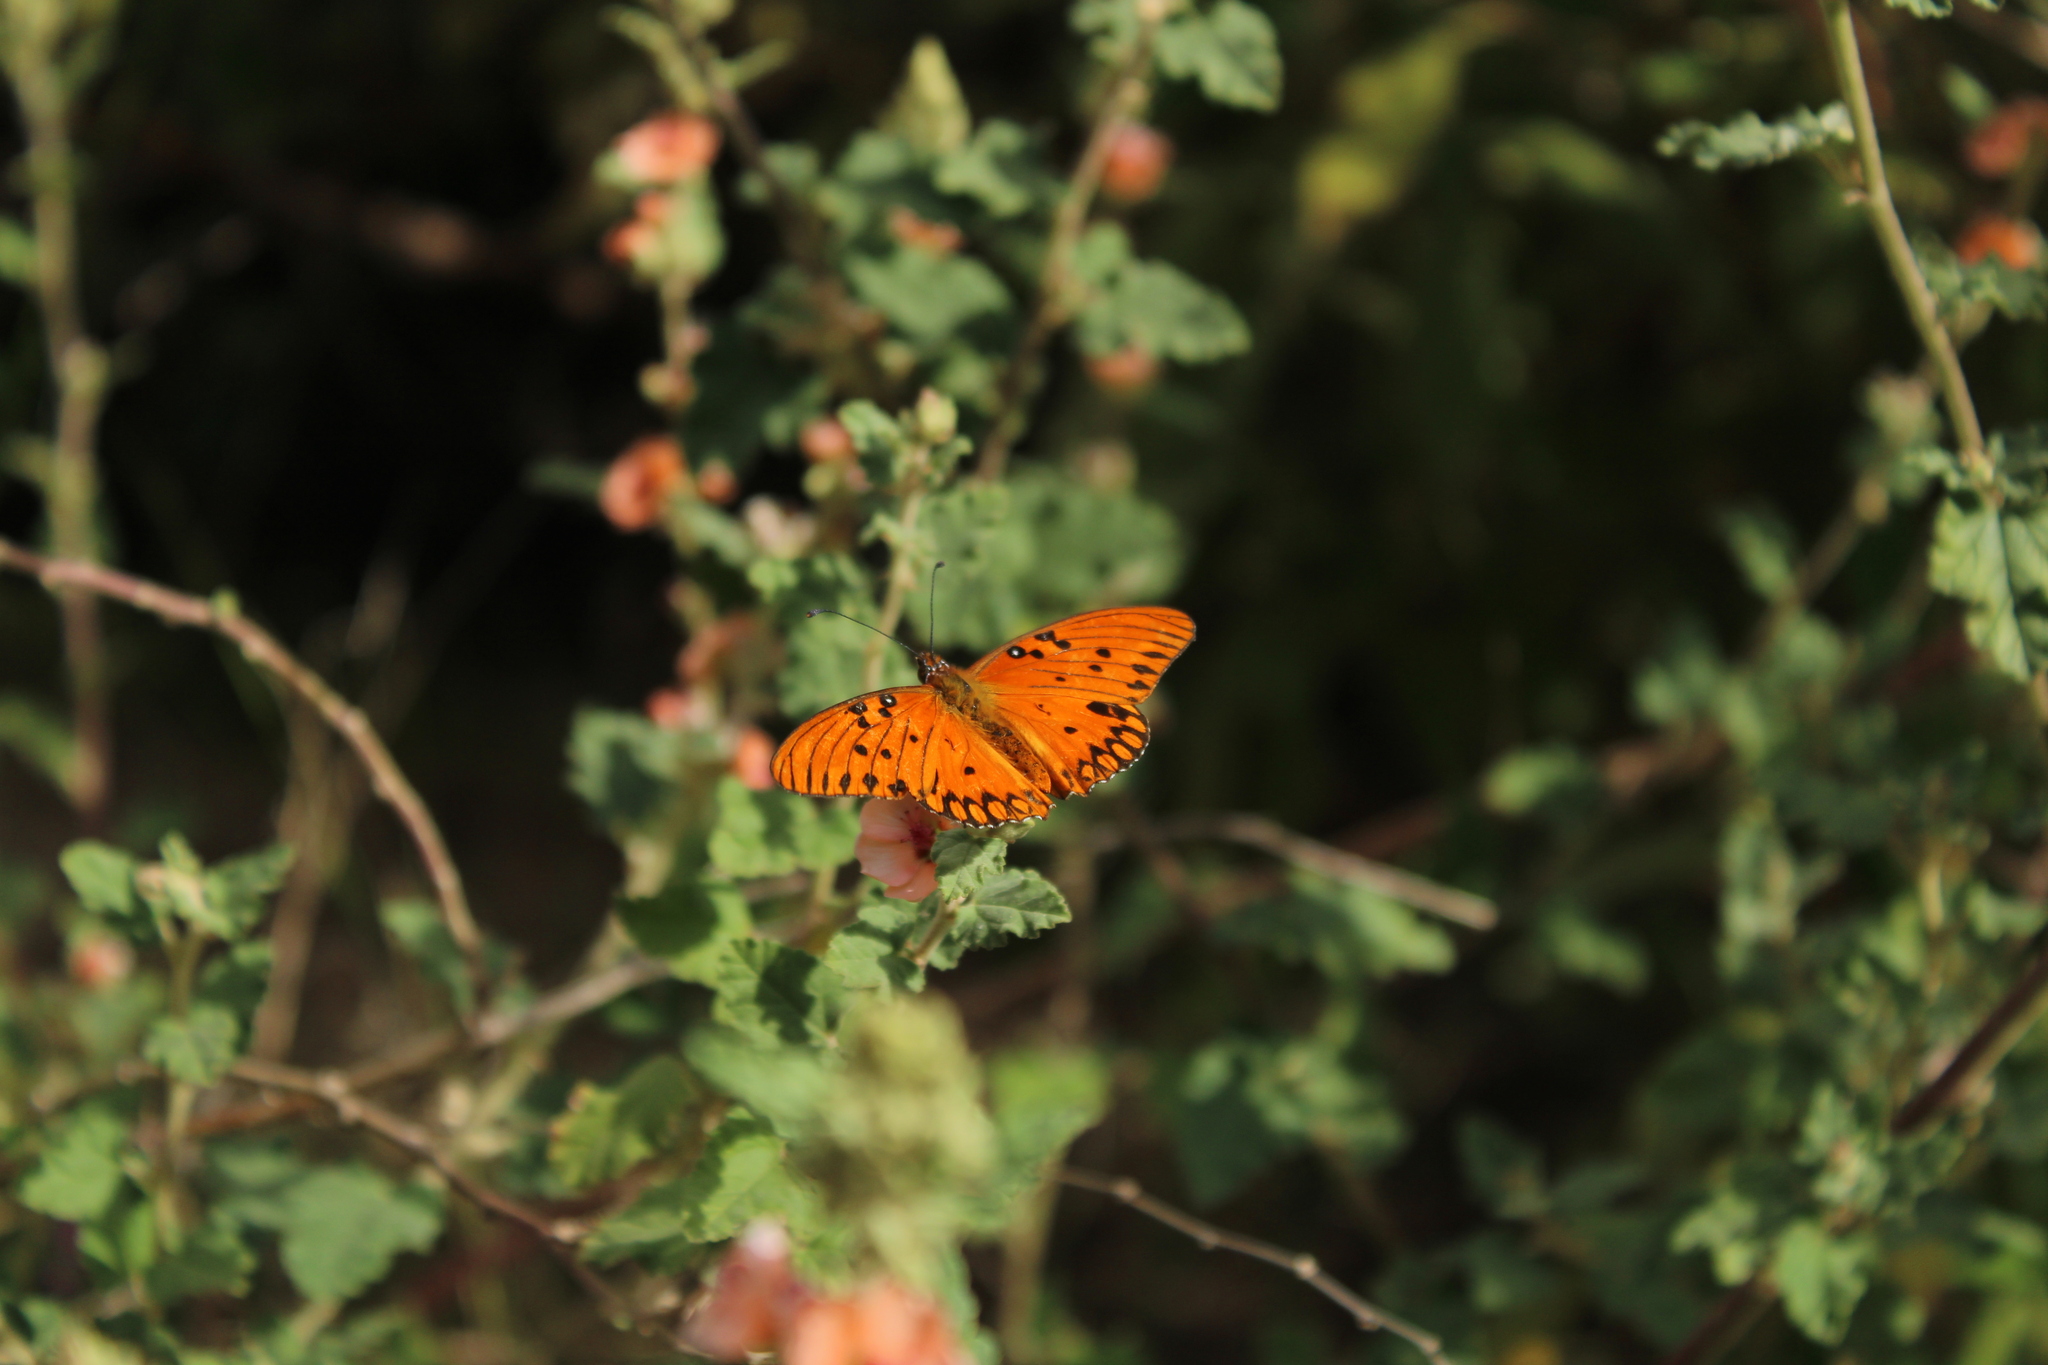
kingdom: Animalia
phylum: Arthropoda
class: Insecta
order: Lepidoptera
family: Nymphalidae
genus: Dione
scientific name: Dione vanillae
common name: Gulf fritillary
